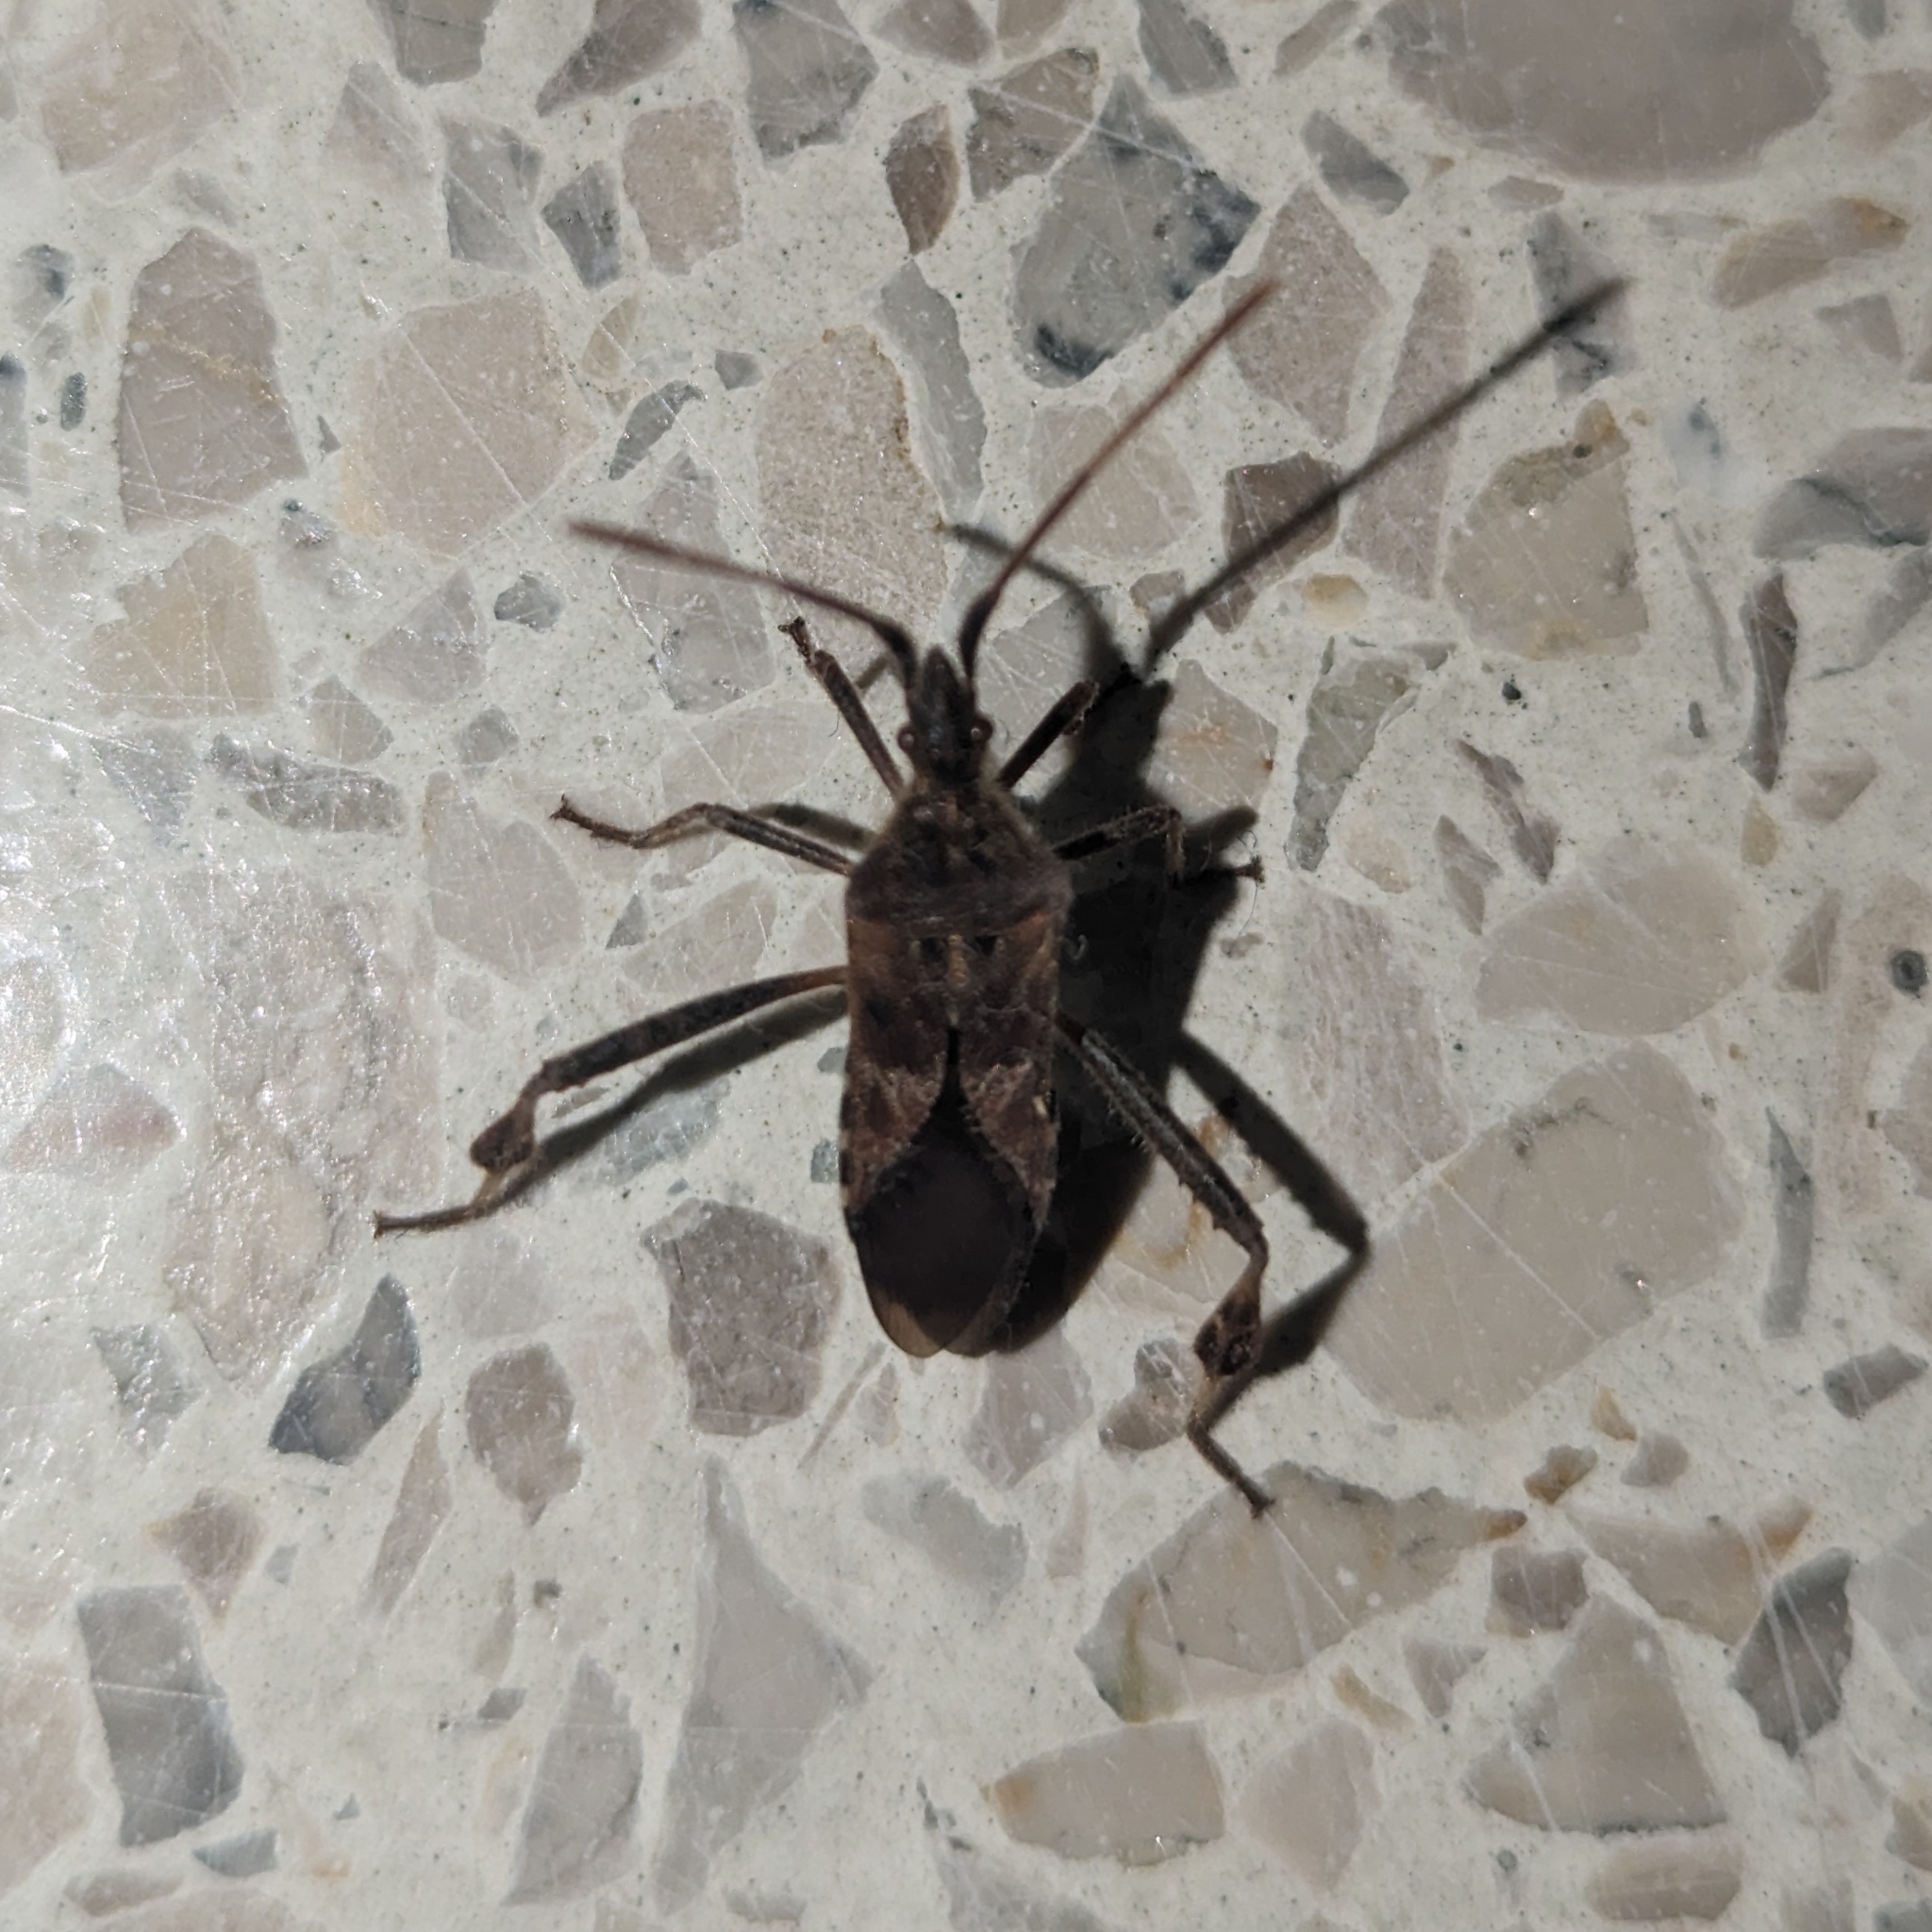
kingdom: Animalia
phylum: Arthropoda
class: Insecta
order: Hemiptera
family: Coreidae
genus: Leptoglossus
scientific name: Leptoglossus occidentalis
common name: Western conifer-seed bug
